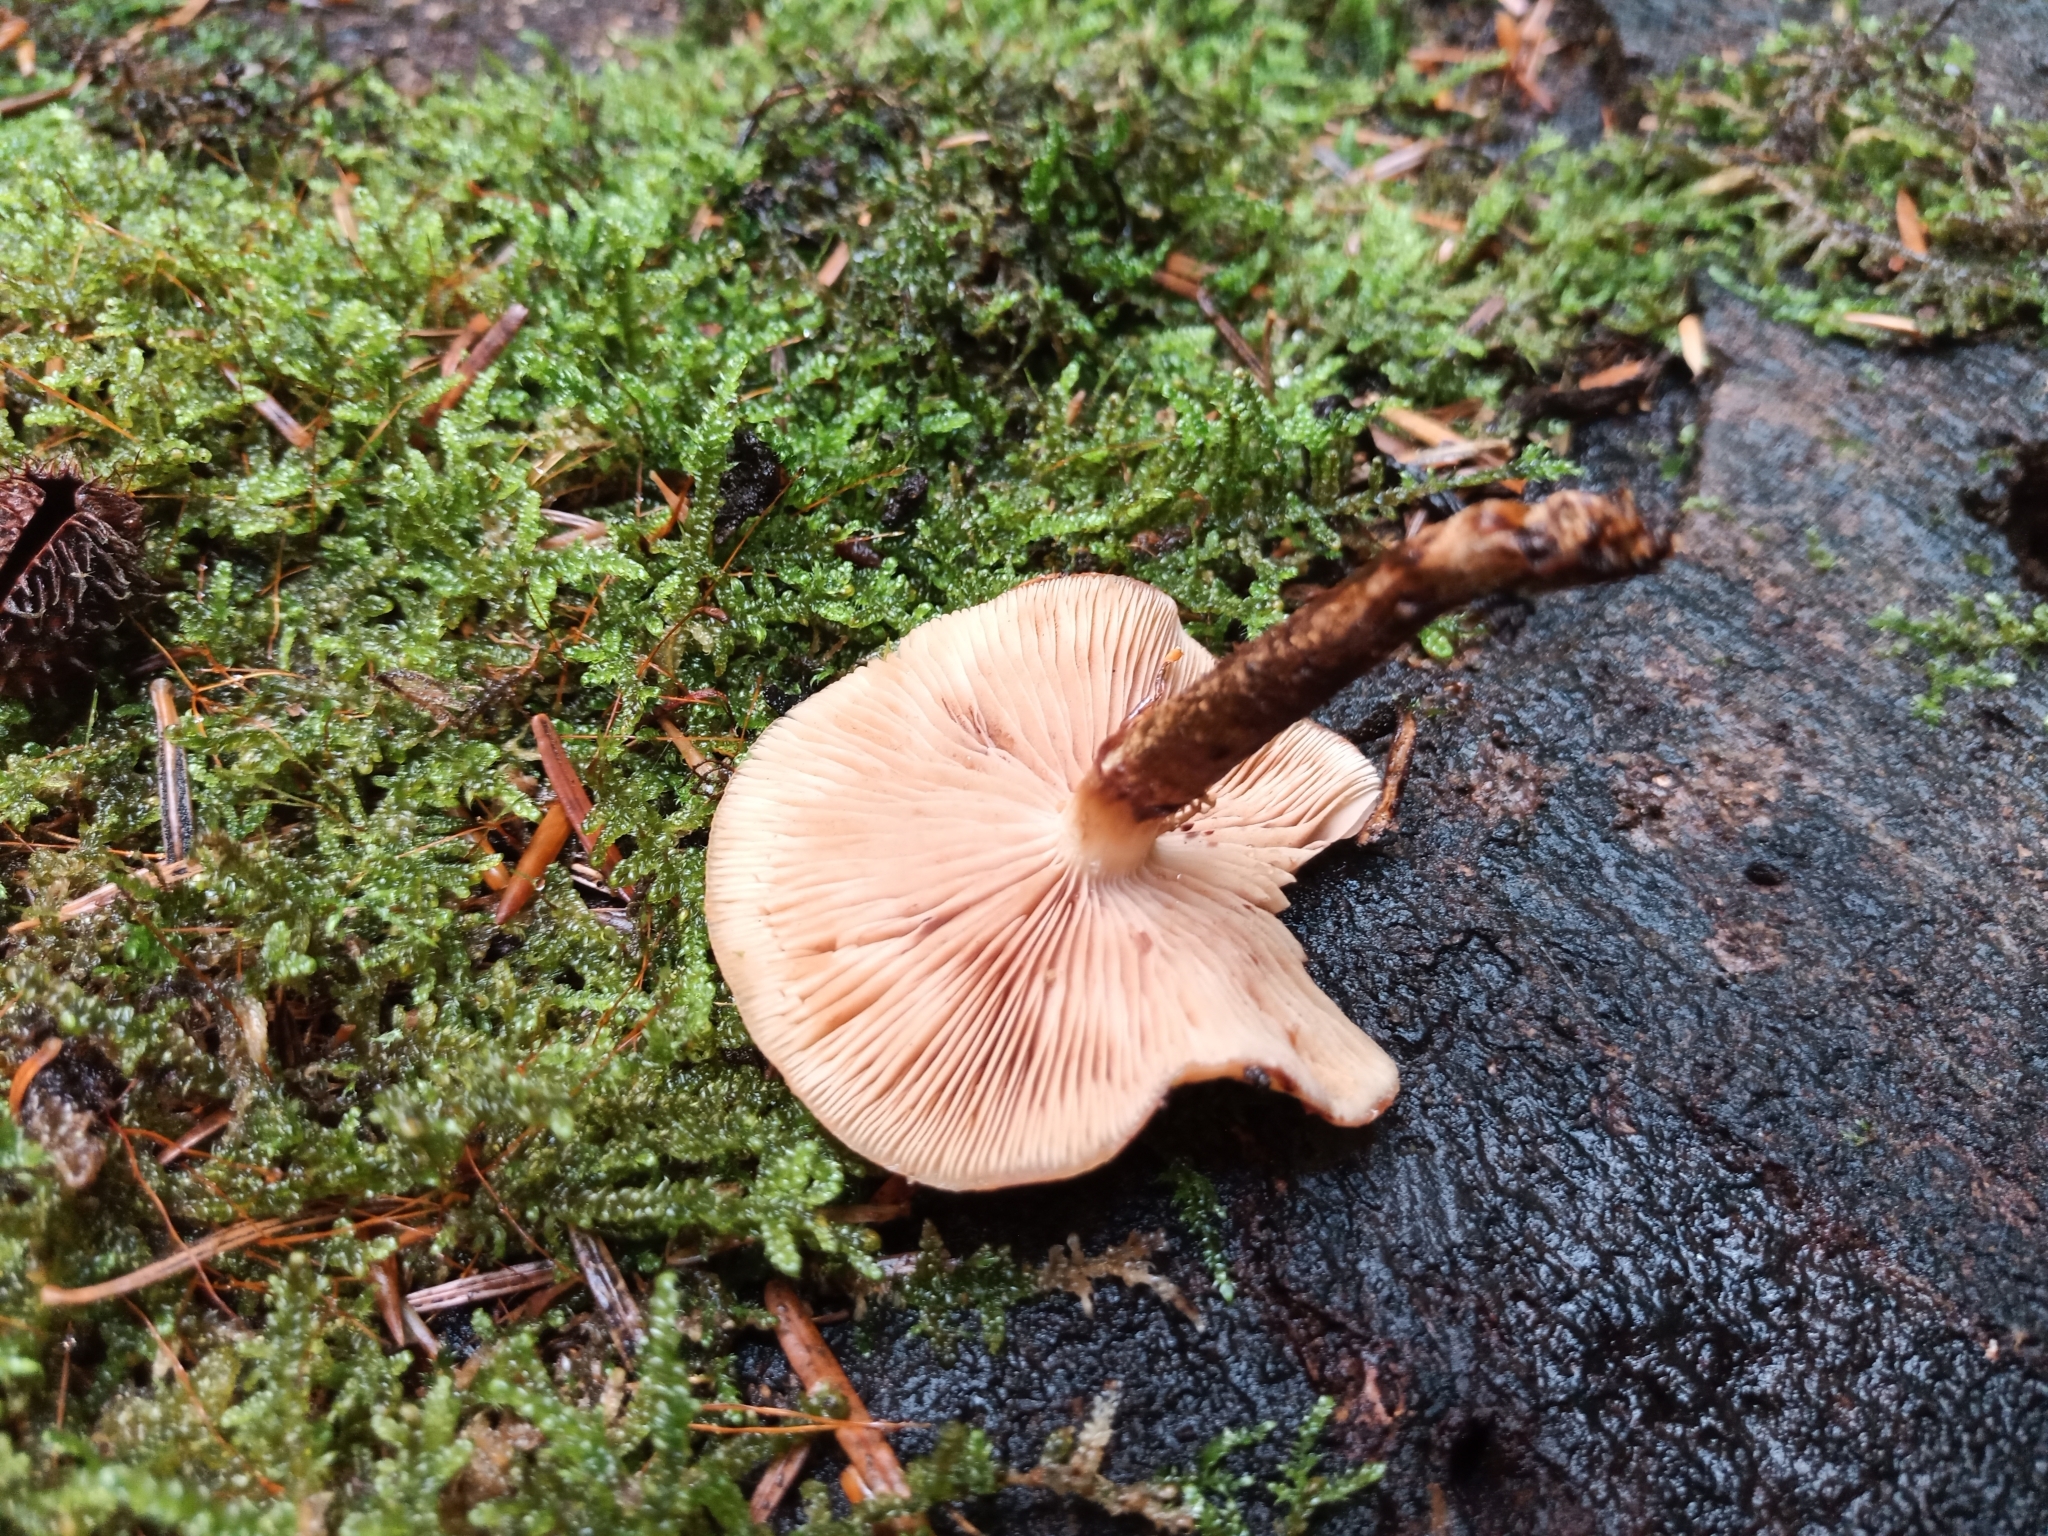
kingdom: Fungi
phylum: Basidiomycota
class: Agaricomycetes
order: Agaricales
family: Strophariaceae
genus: Kuehneromyces
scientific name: Kuehneromyces mutabilis
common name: Sheathed woodtuft
